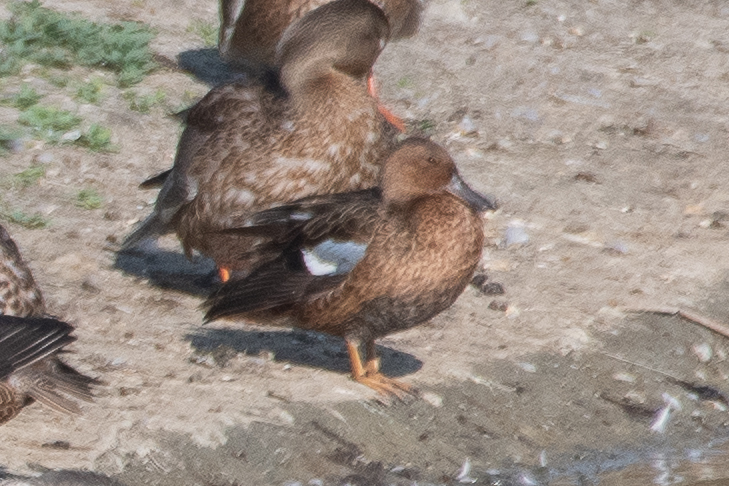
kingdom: Animalia
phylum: Chordata
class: Aves
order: Anseriformes
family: Anatidae
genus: Spatula
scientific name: Spatula cyanoptera
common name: Cinnamon teal
